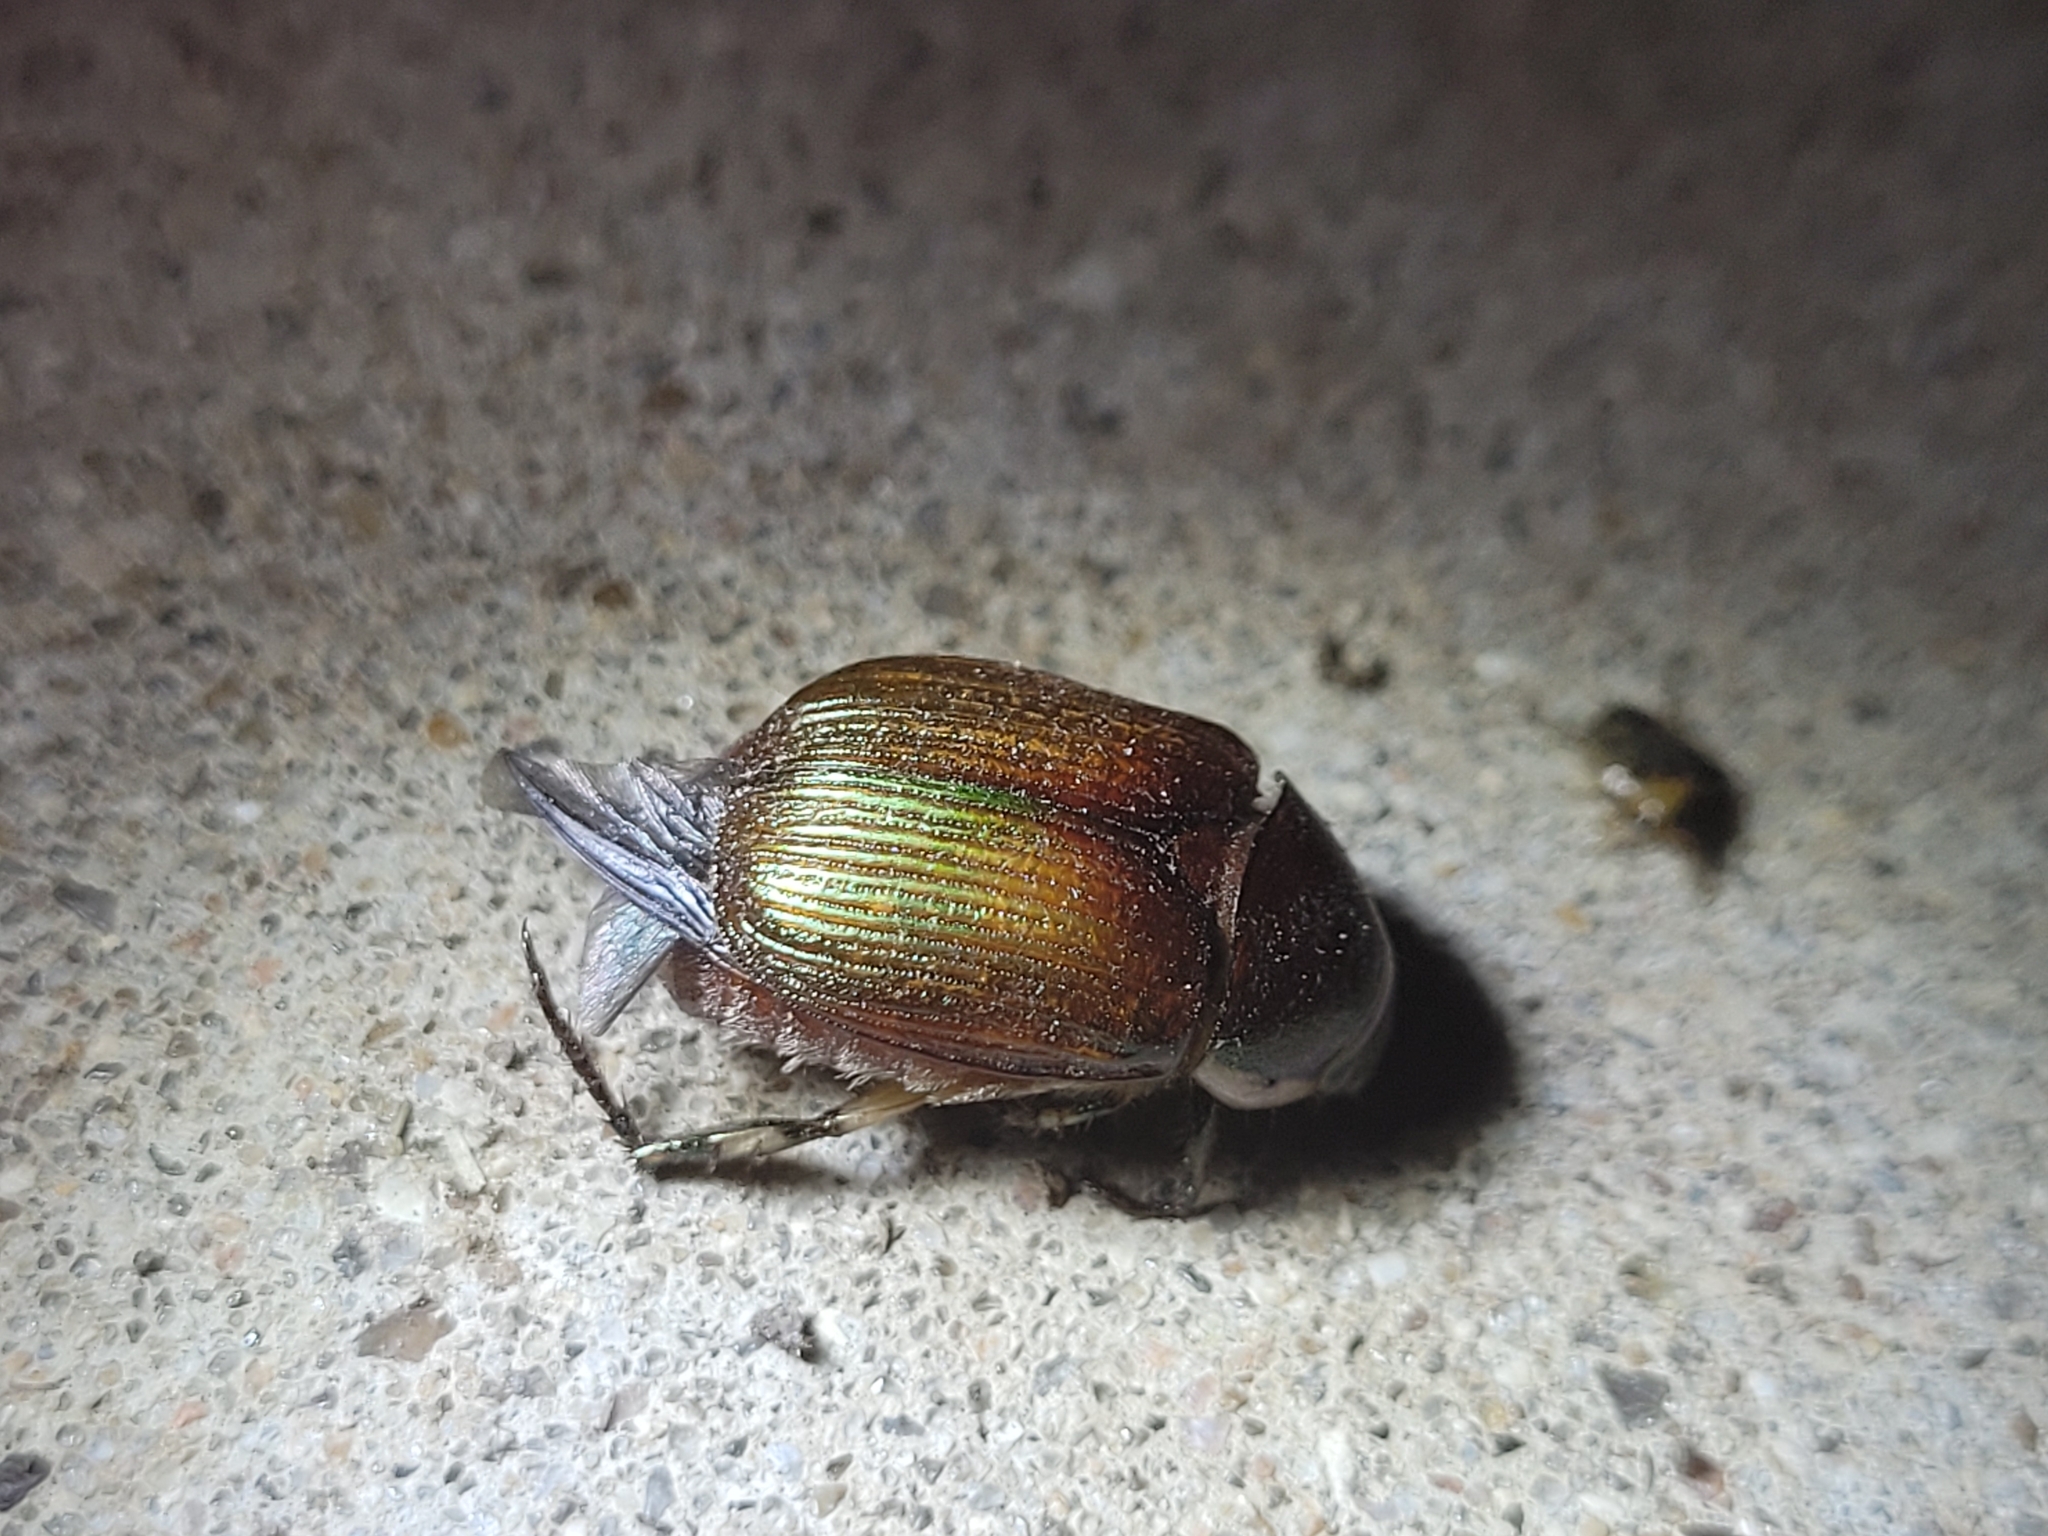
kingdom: Animalia
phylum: Arthropoda
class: Insecta
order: Coleoptera
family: Scarabaeidae
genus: Callistethus
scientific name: Callistethus marginatus
